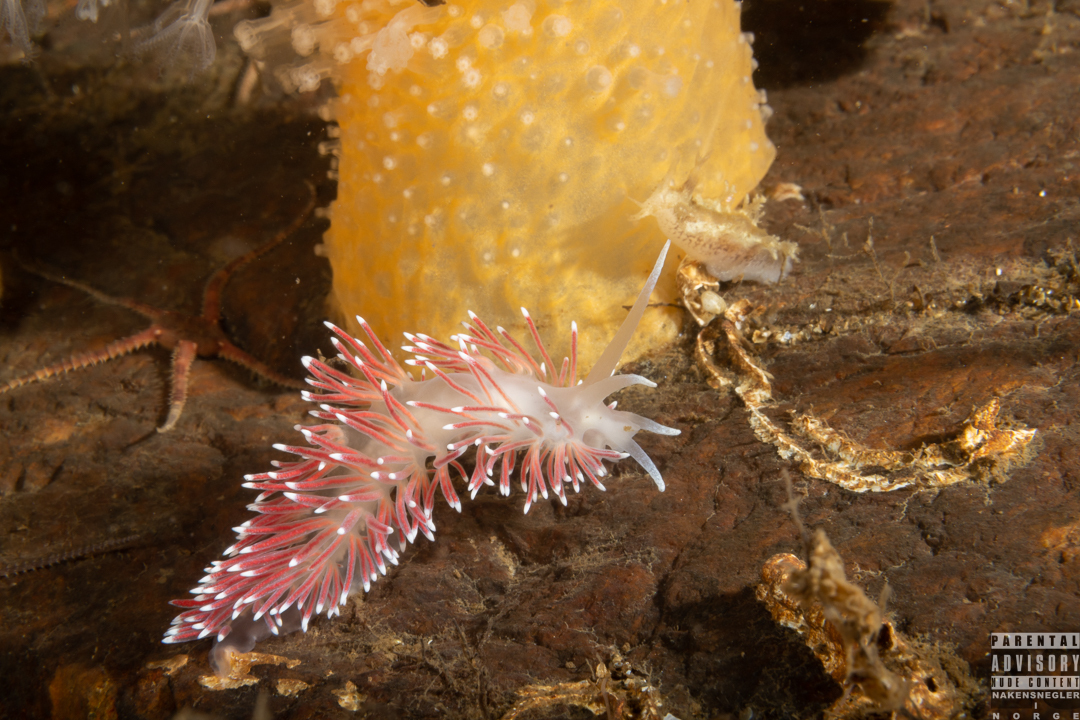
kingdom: Animalia
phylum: Mollusca
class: Gastropoda
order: Nudibranchia
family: Flabellinidae
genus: Carronella
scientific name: Carronella pellucida
